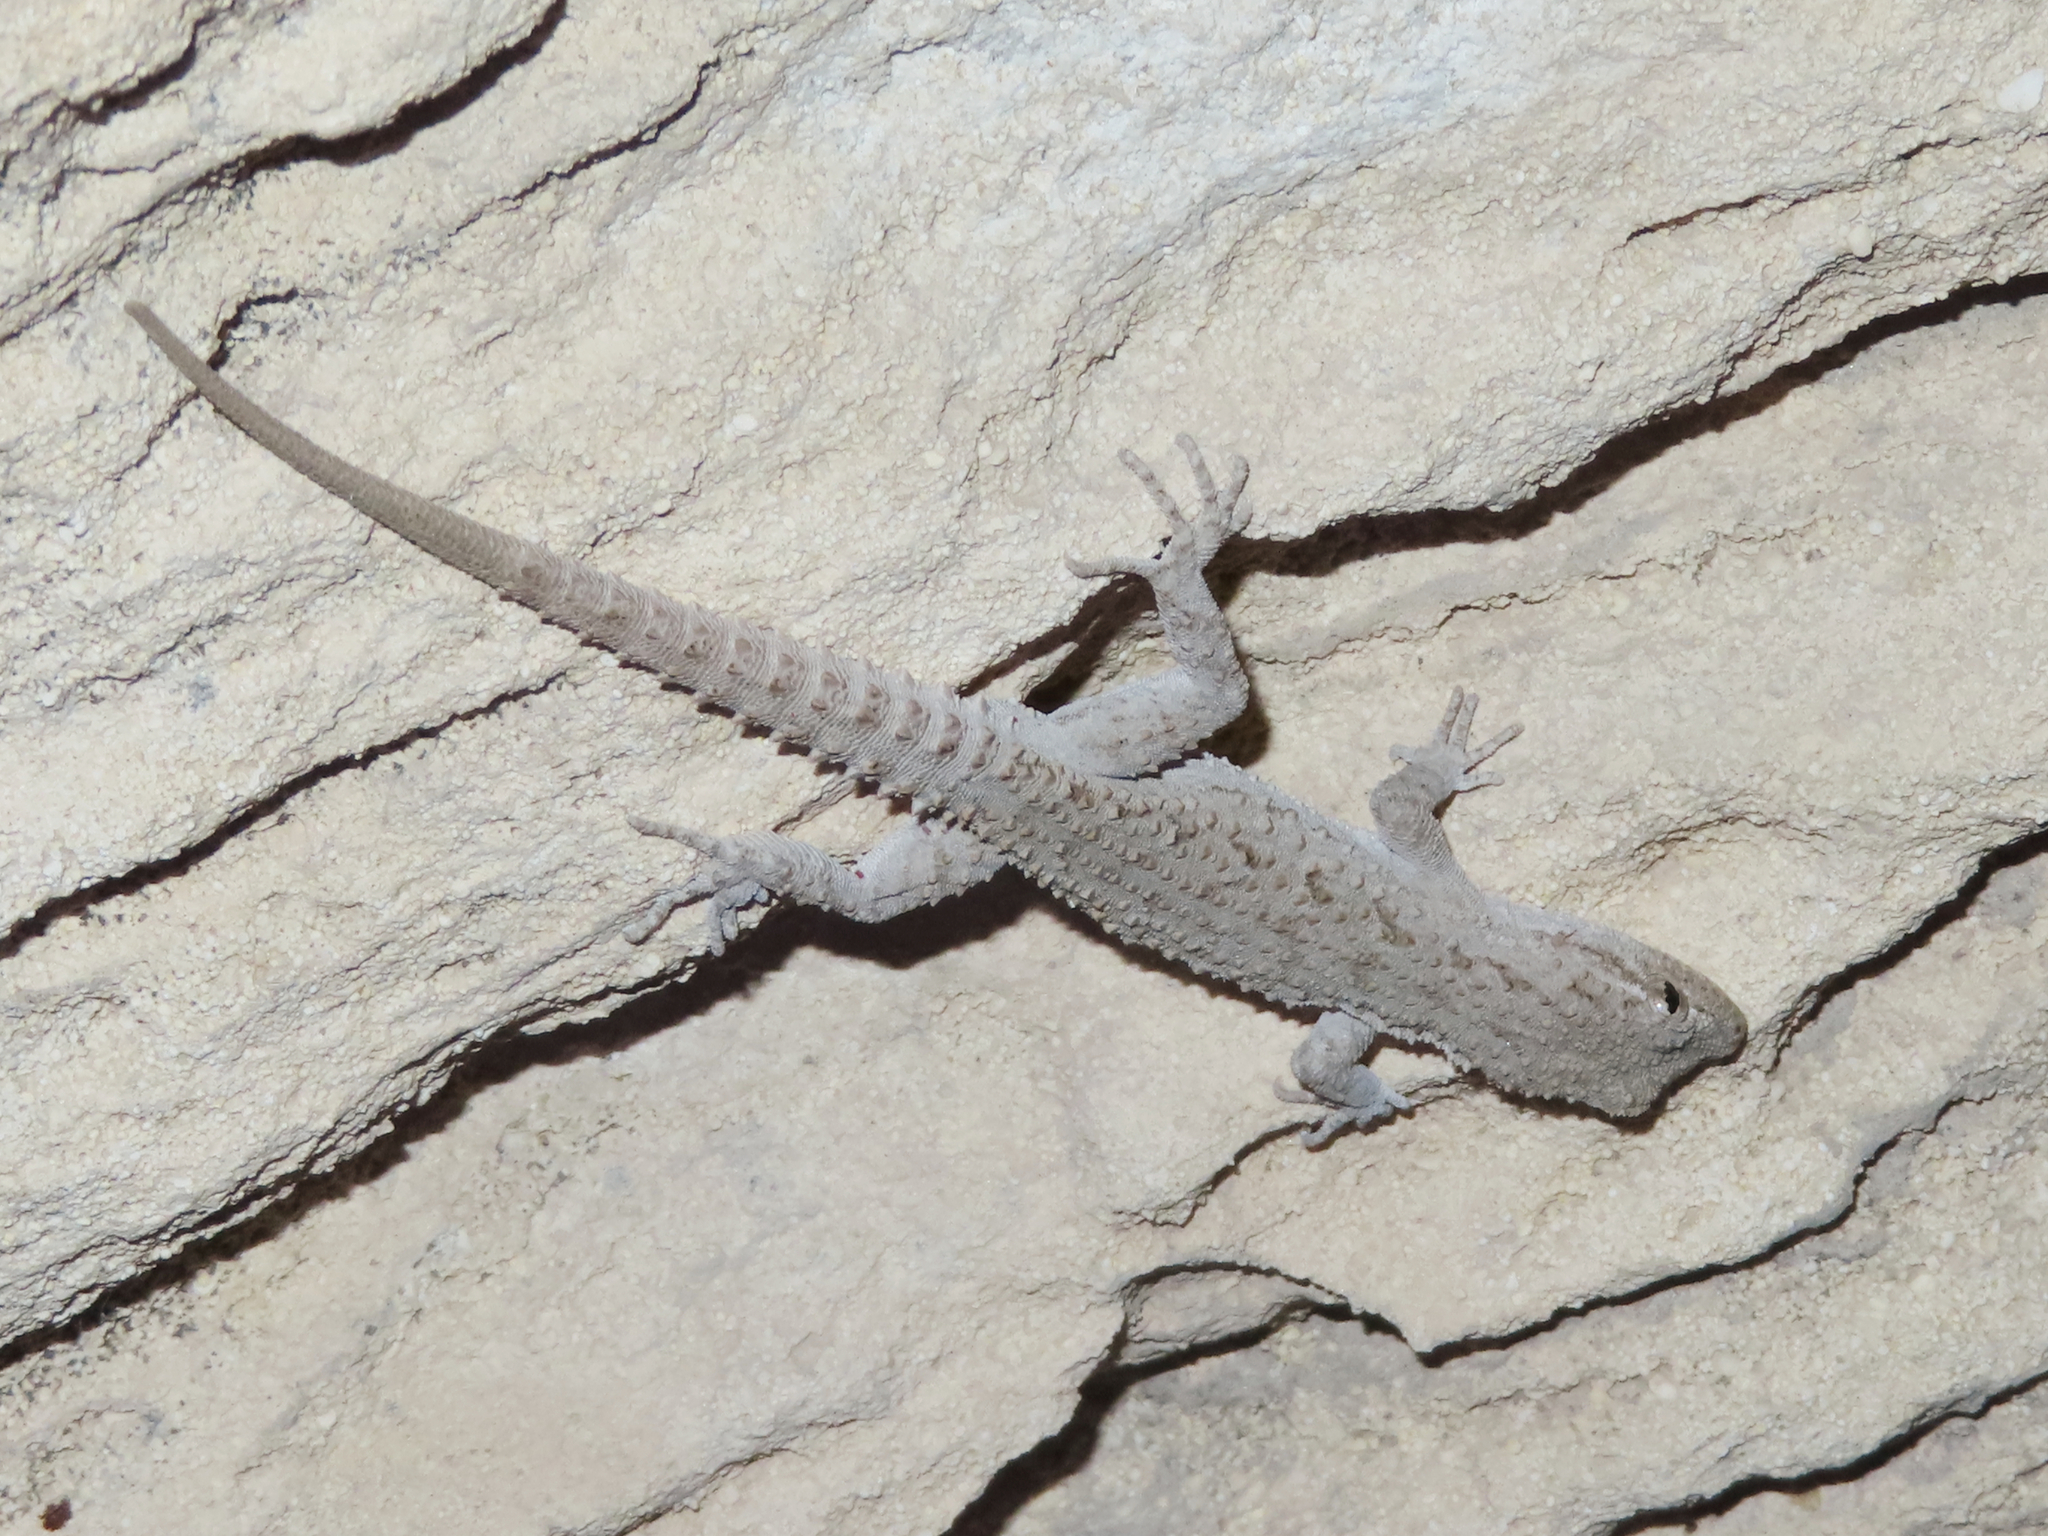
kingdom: Animalia
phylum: Chordata
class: Squamata
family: Gekkonidae
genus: Mediodactylus
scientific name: Mediodactylus russowii
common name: Grey thin-toed gecko
